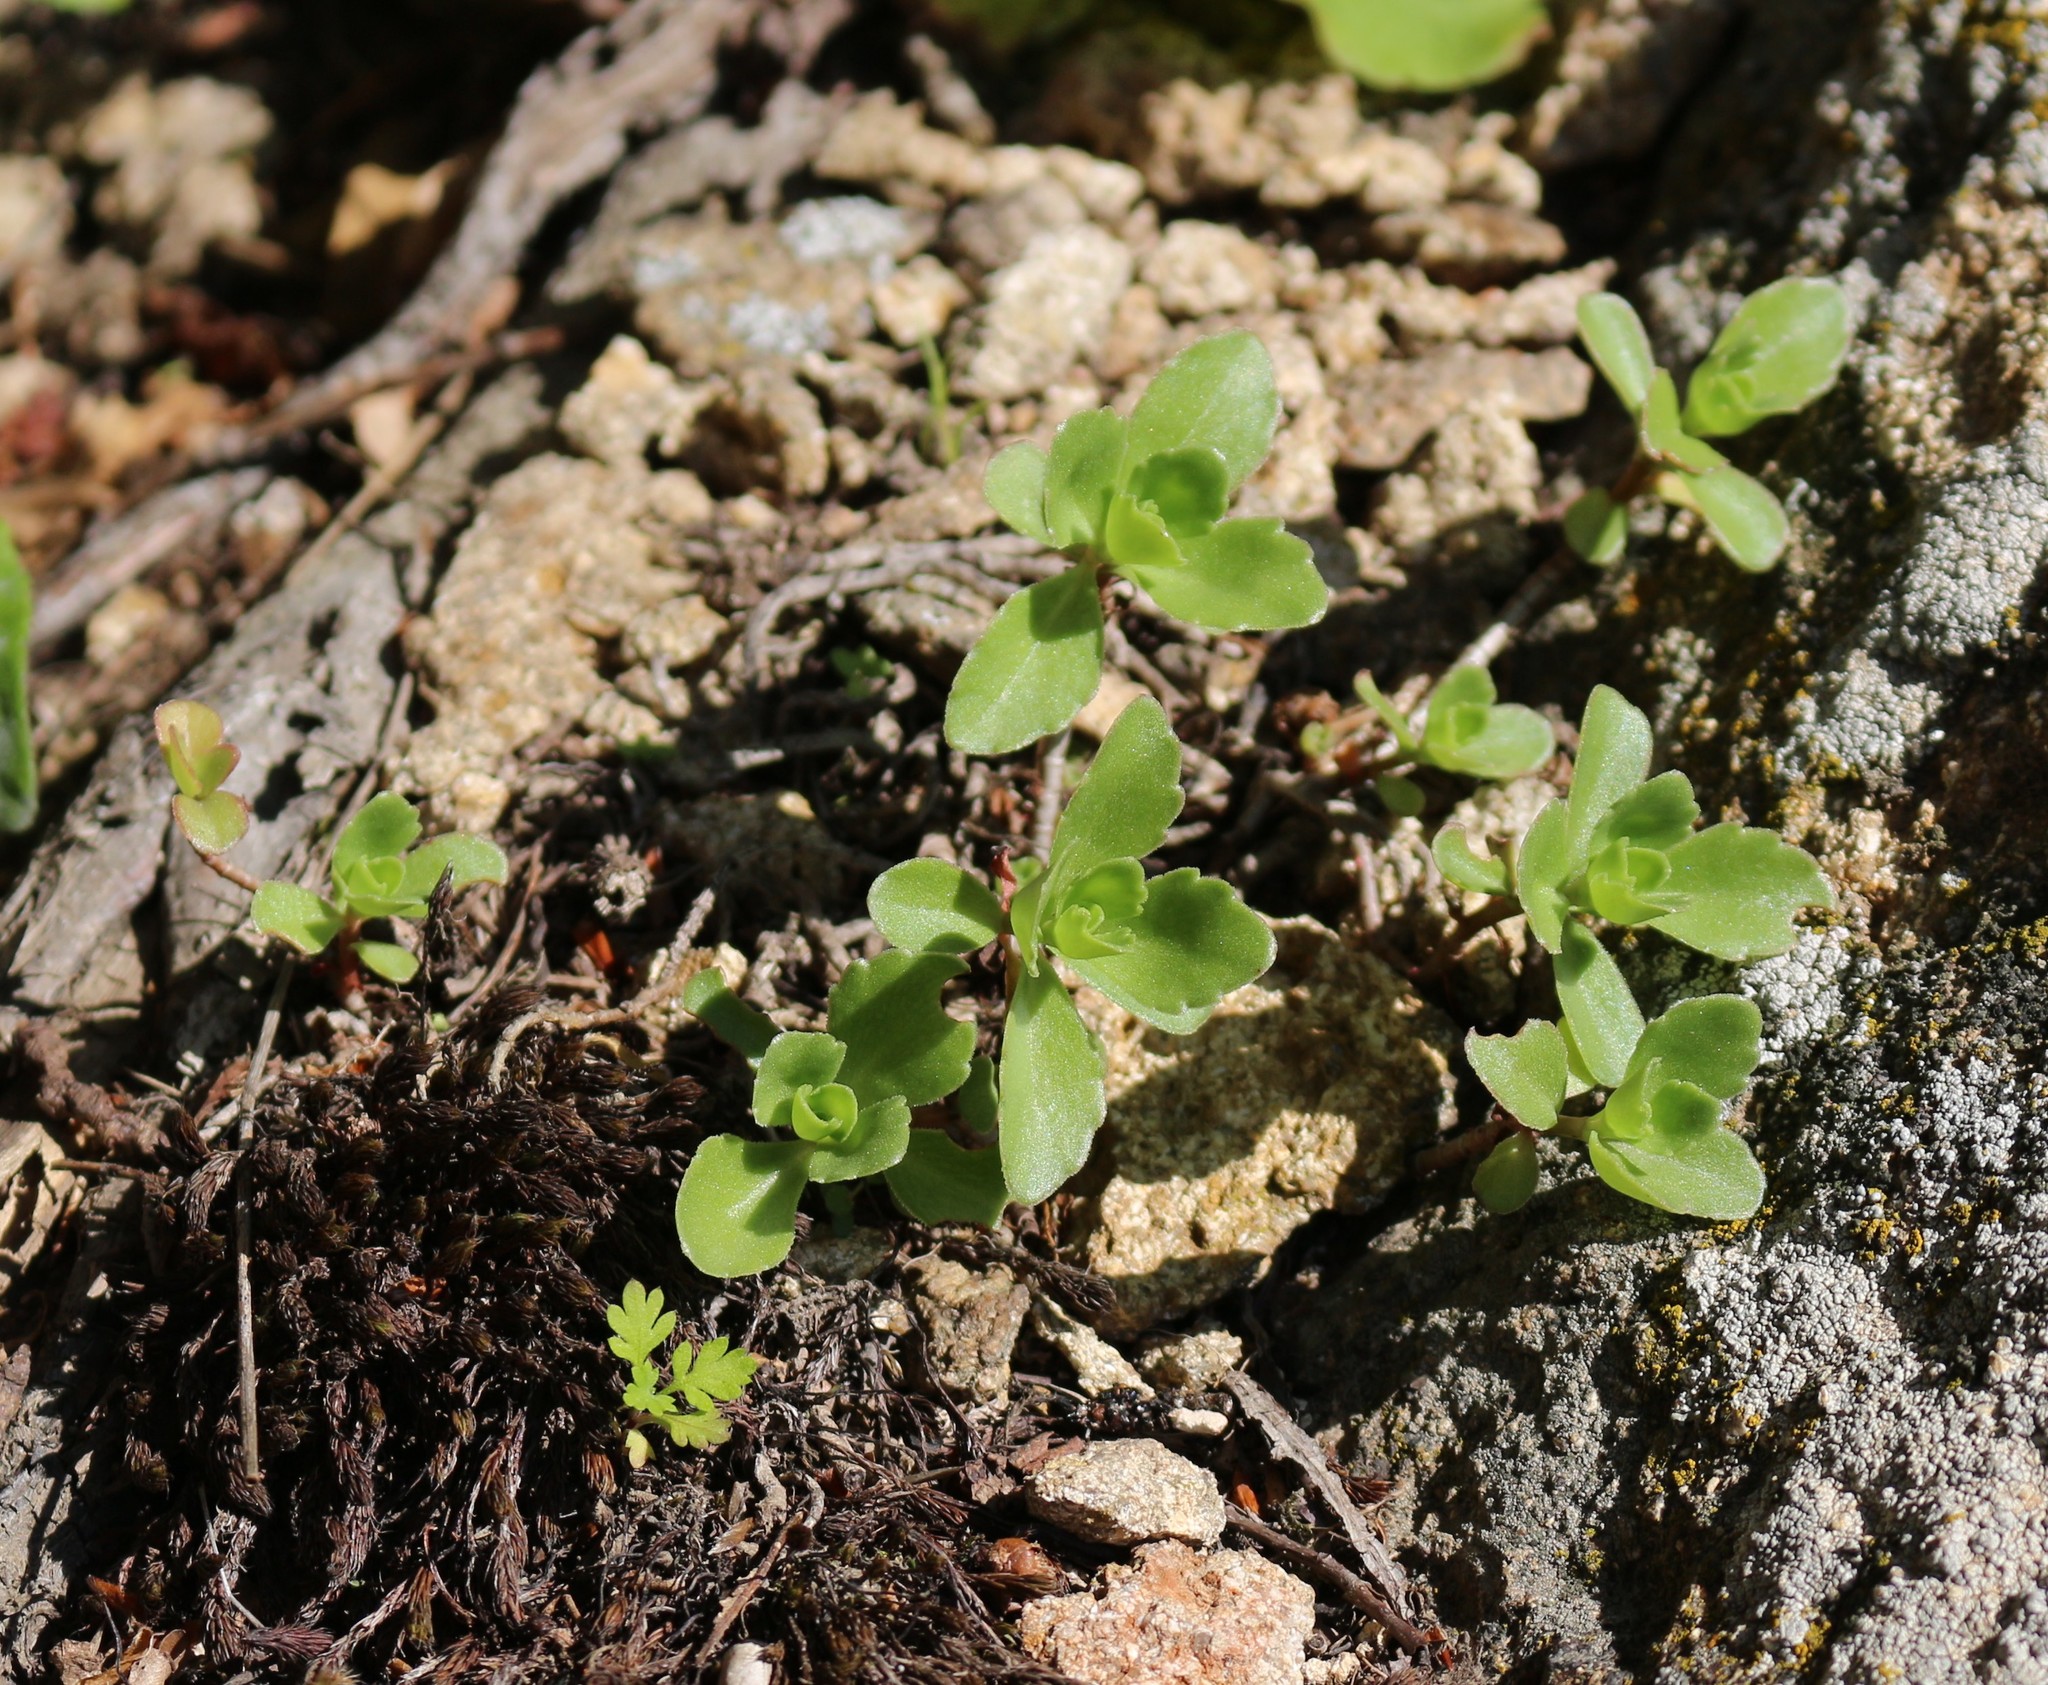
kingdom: Plantae
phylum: Tracheophyta
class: Magnoliopsida
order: Saxifragales
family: Crassulaceae
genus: Phedimus
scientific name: Phedimus spurius
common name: Caucasian stonecrop
